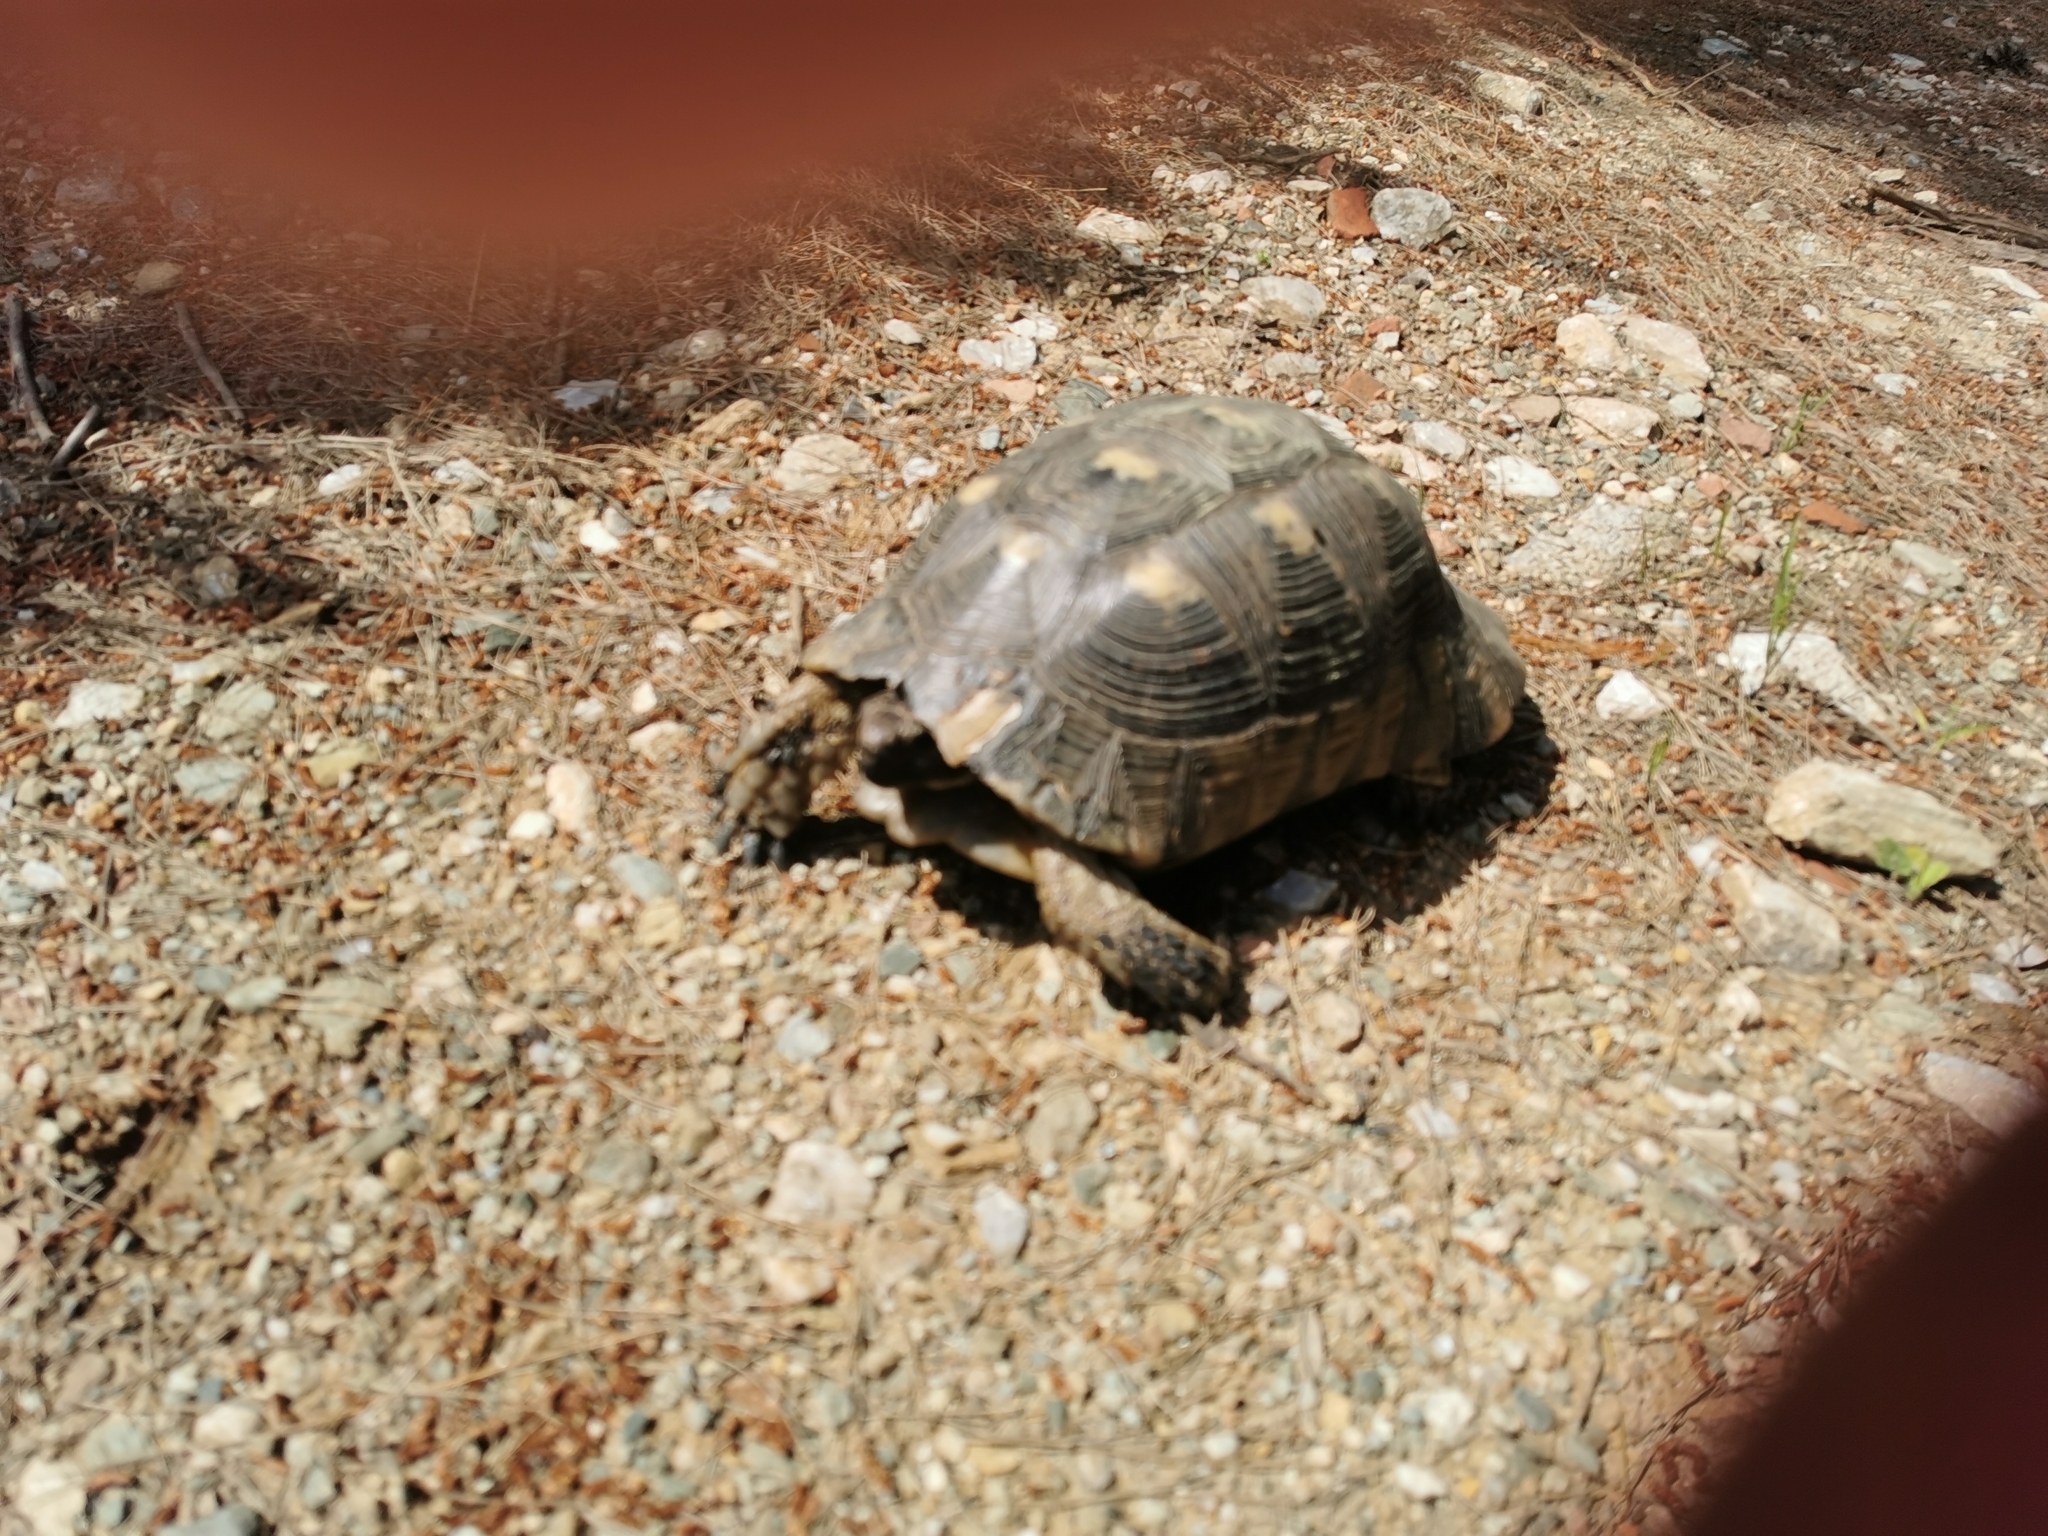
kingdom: Animalia
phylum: Chordata
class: Testudines
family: Testudinidae
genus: Testudo
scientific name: Testudo marginata
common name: Marginated tortoise
